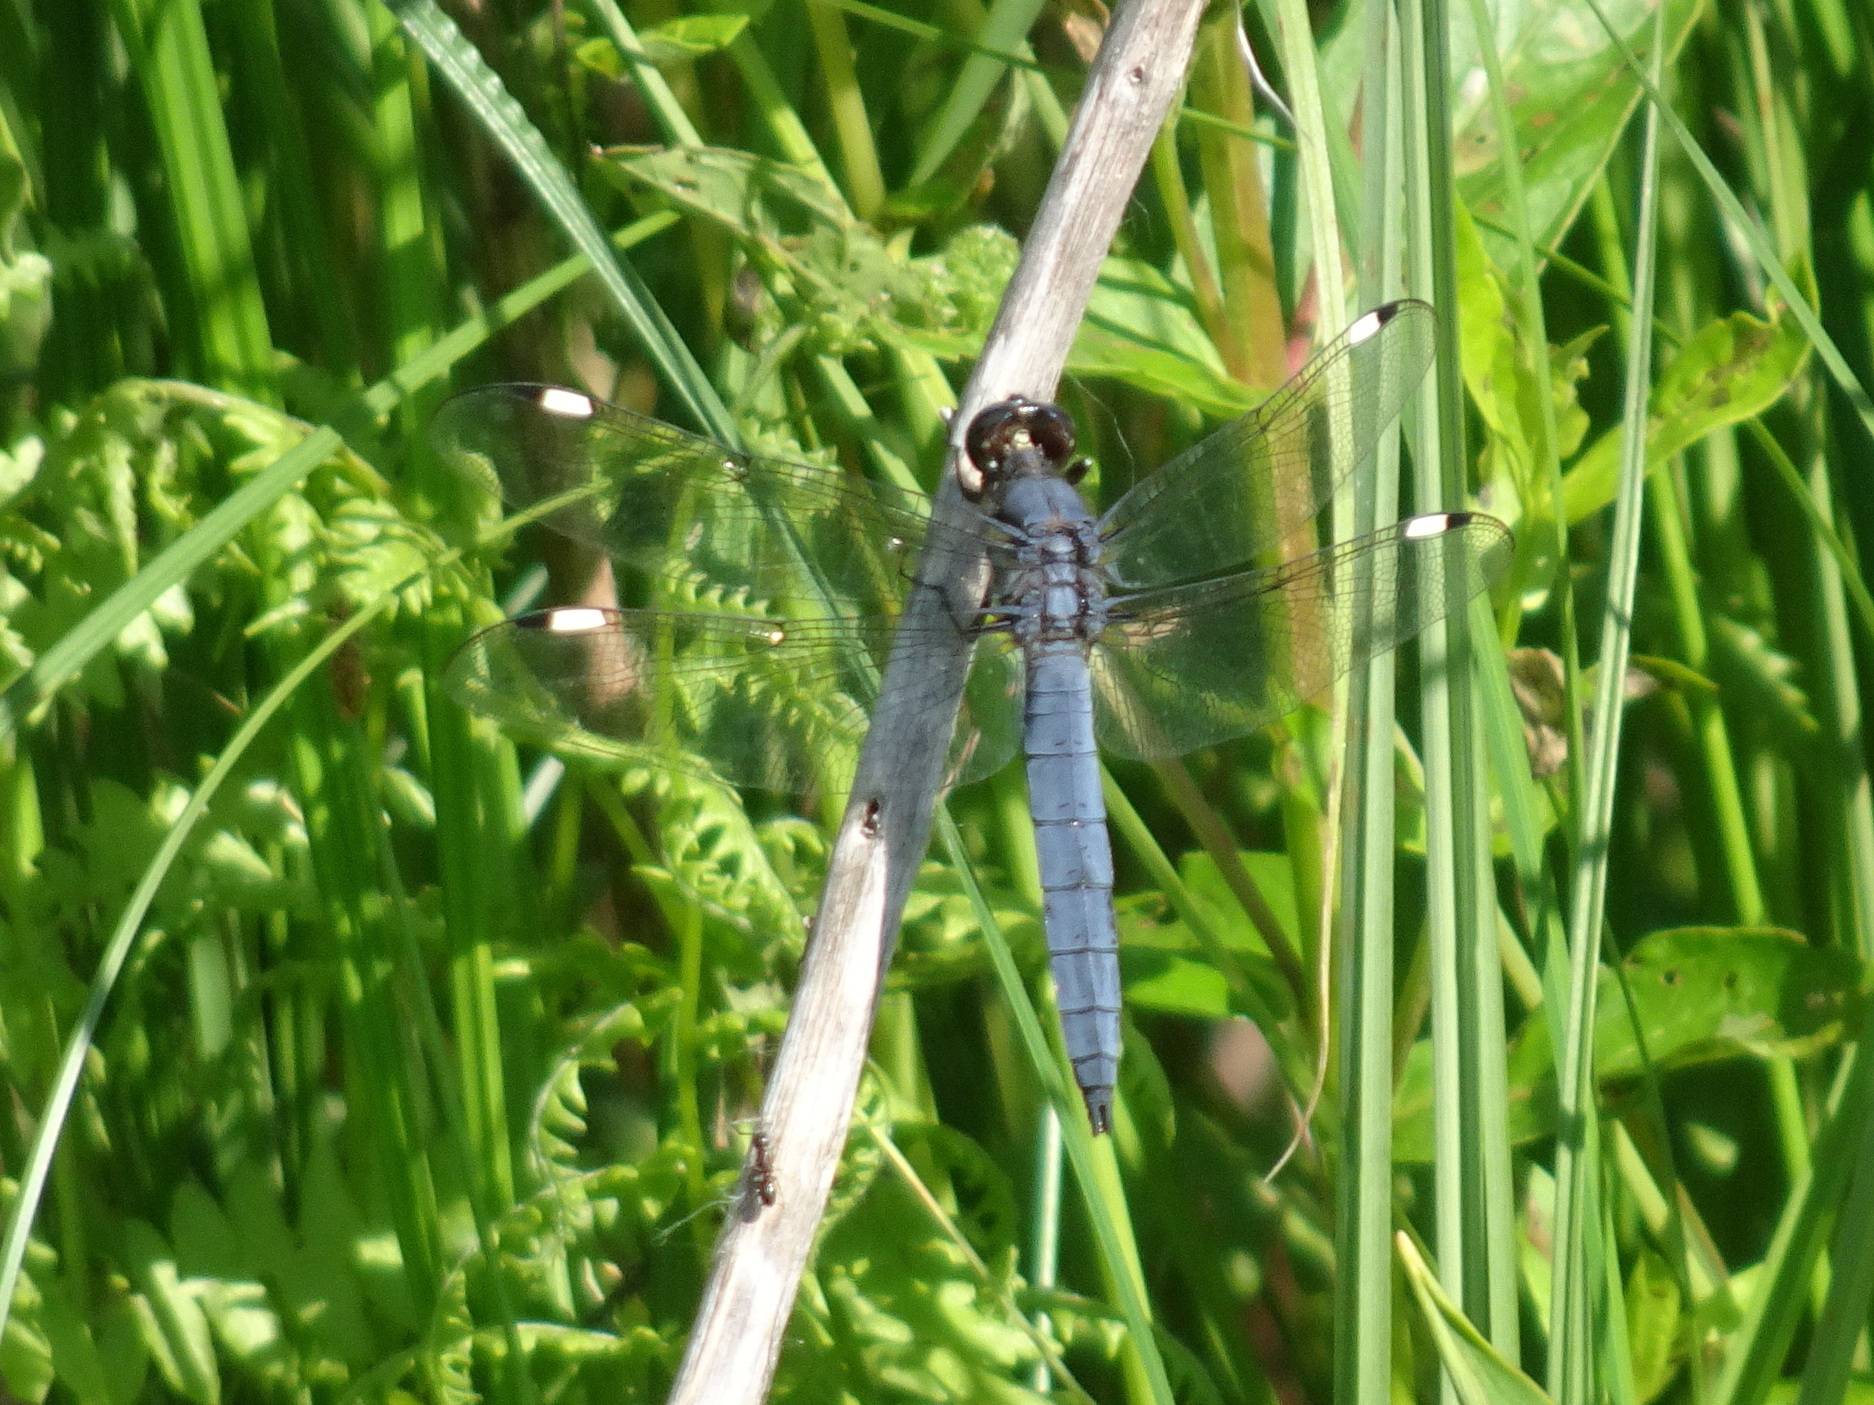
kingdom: Animalia
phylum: Arthropoda
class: Insecta
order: Odonata
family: Libellulidae
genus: Libellula
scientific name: Libellula cyanea
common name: Spangled skimmer
